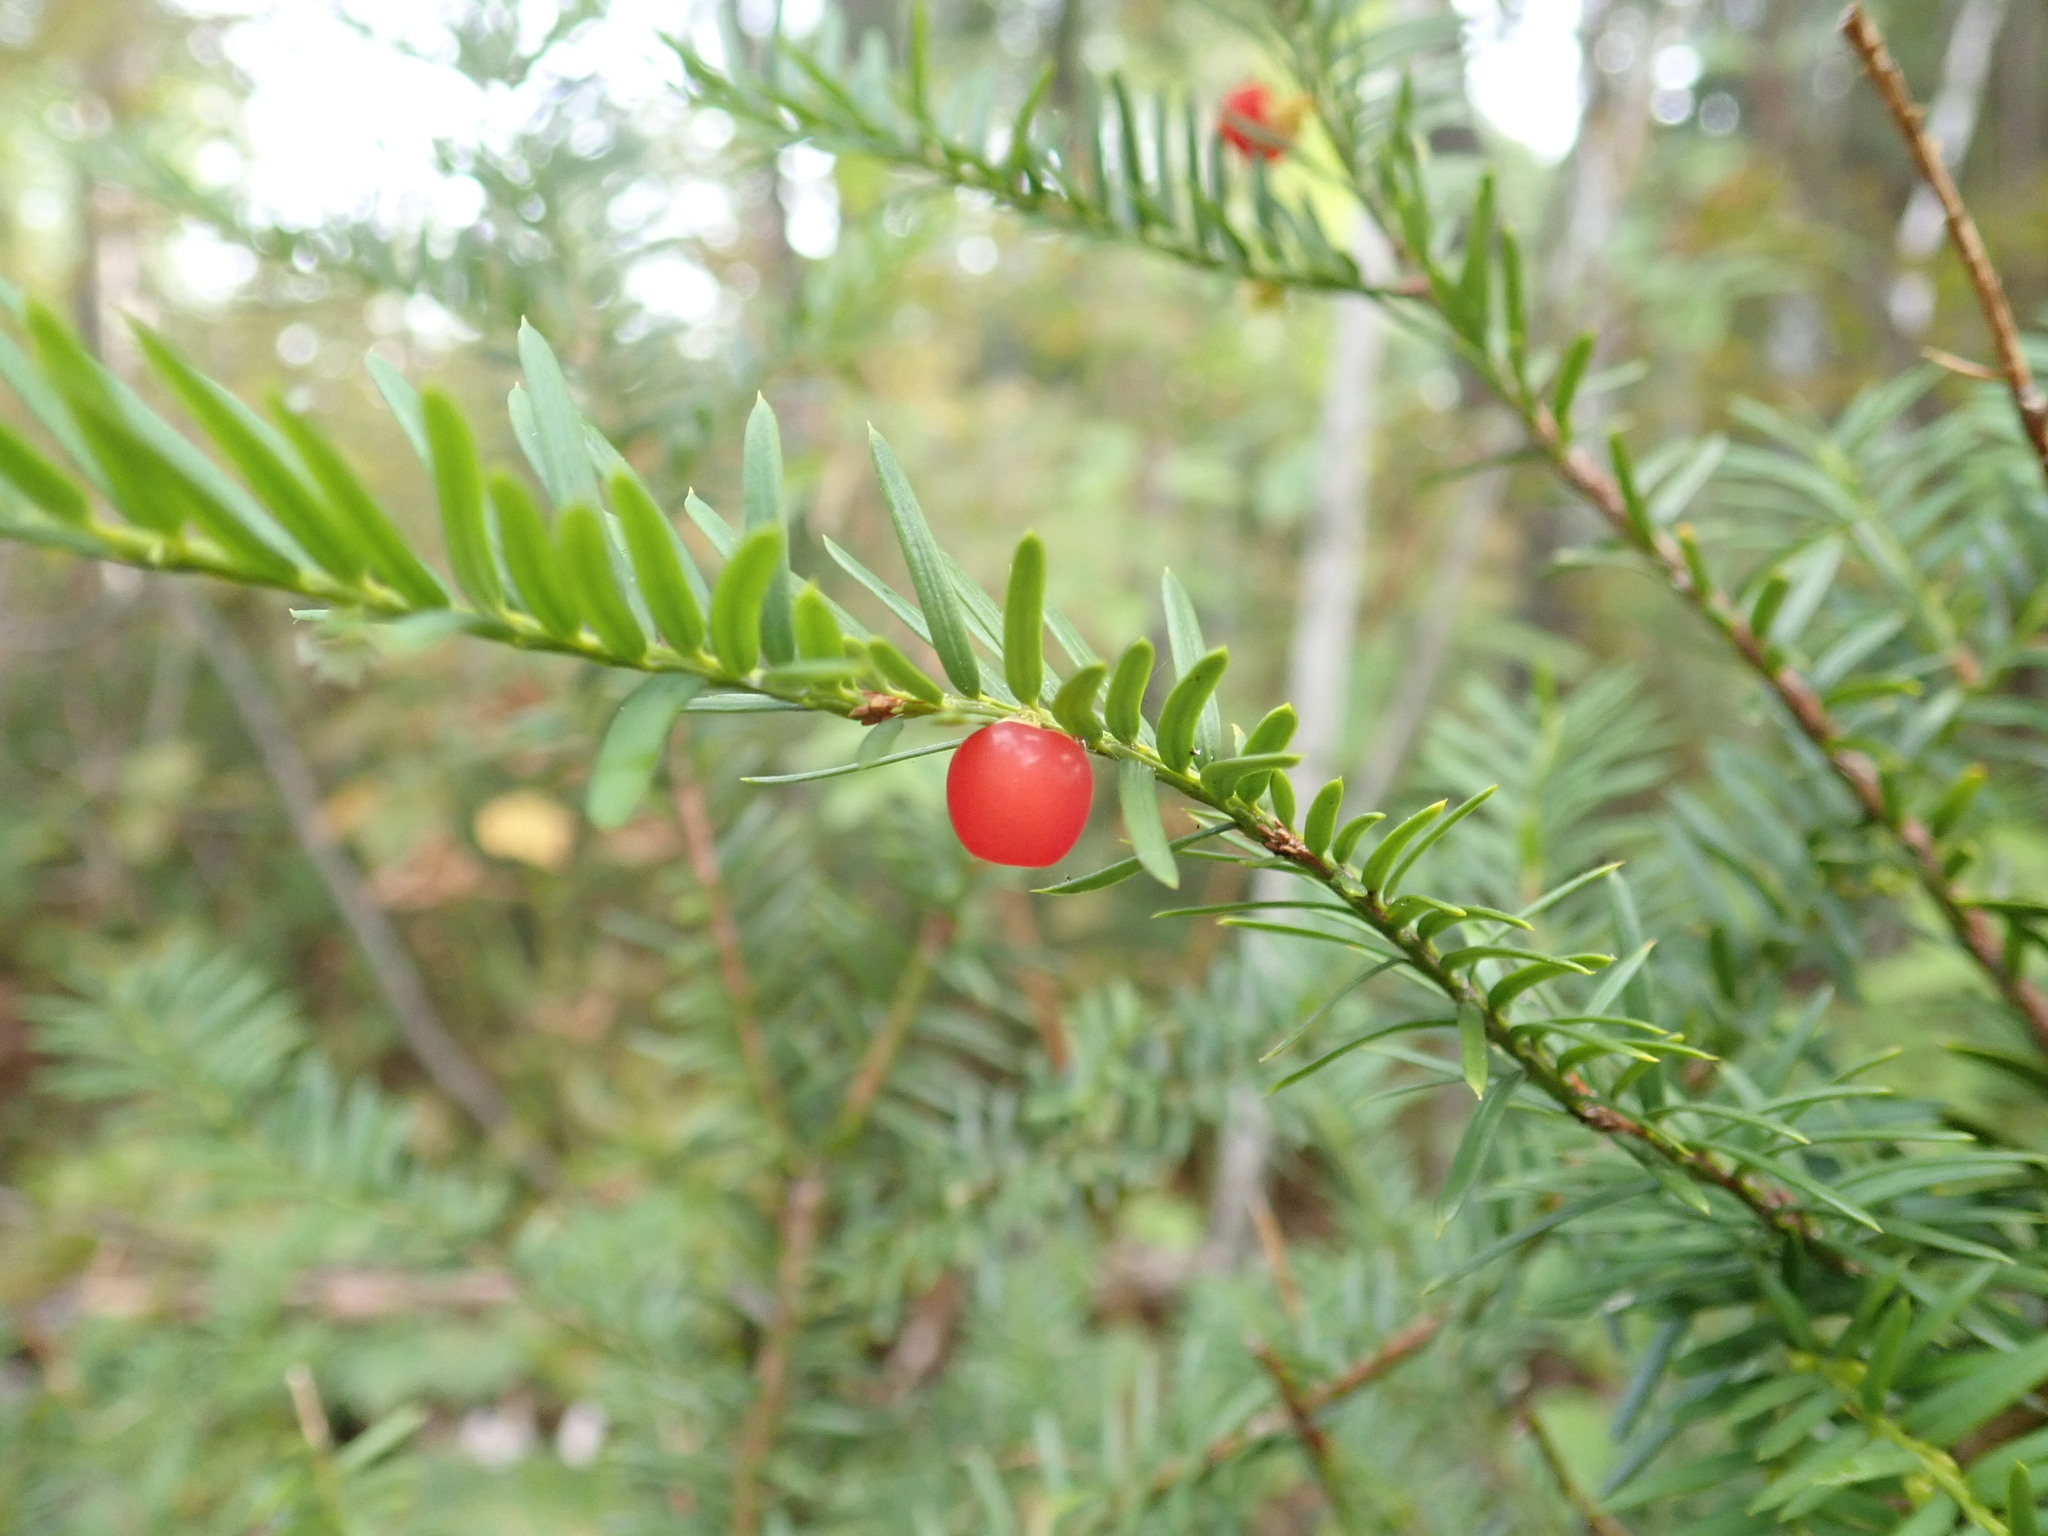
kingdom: Plantae
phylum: Tracheophyta
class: Pinopsida
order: Pinales
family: Taxaceae
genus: Taxus
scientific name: Taxus canadensis
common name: American yew
